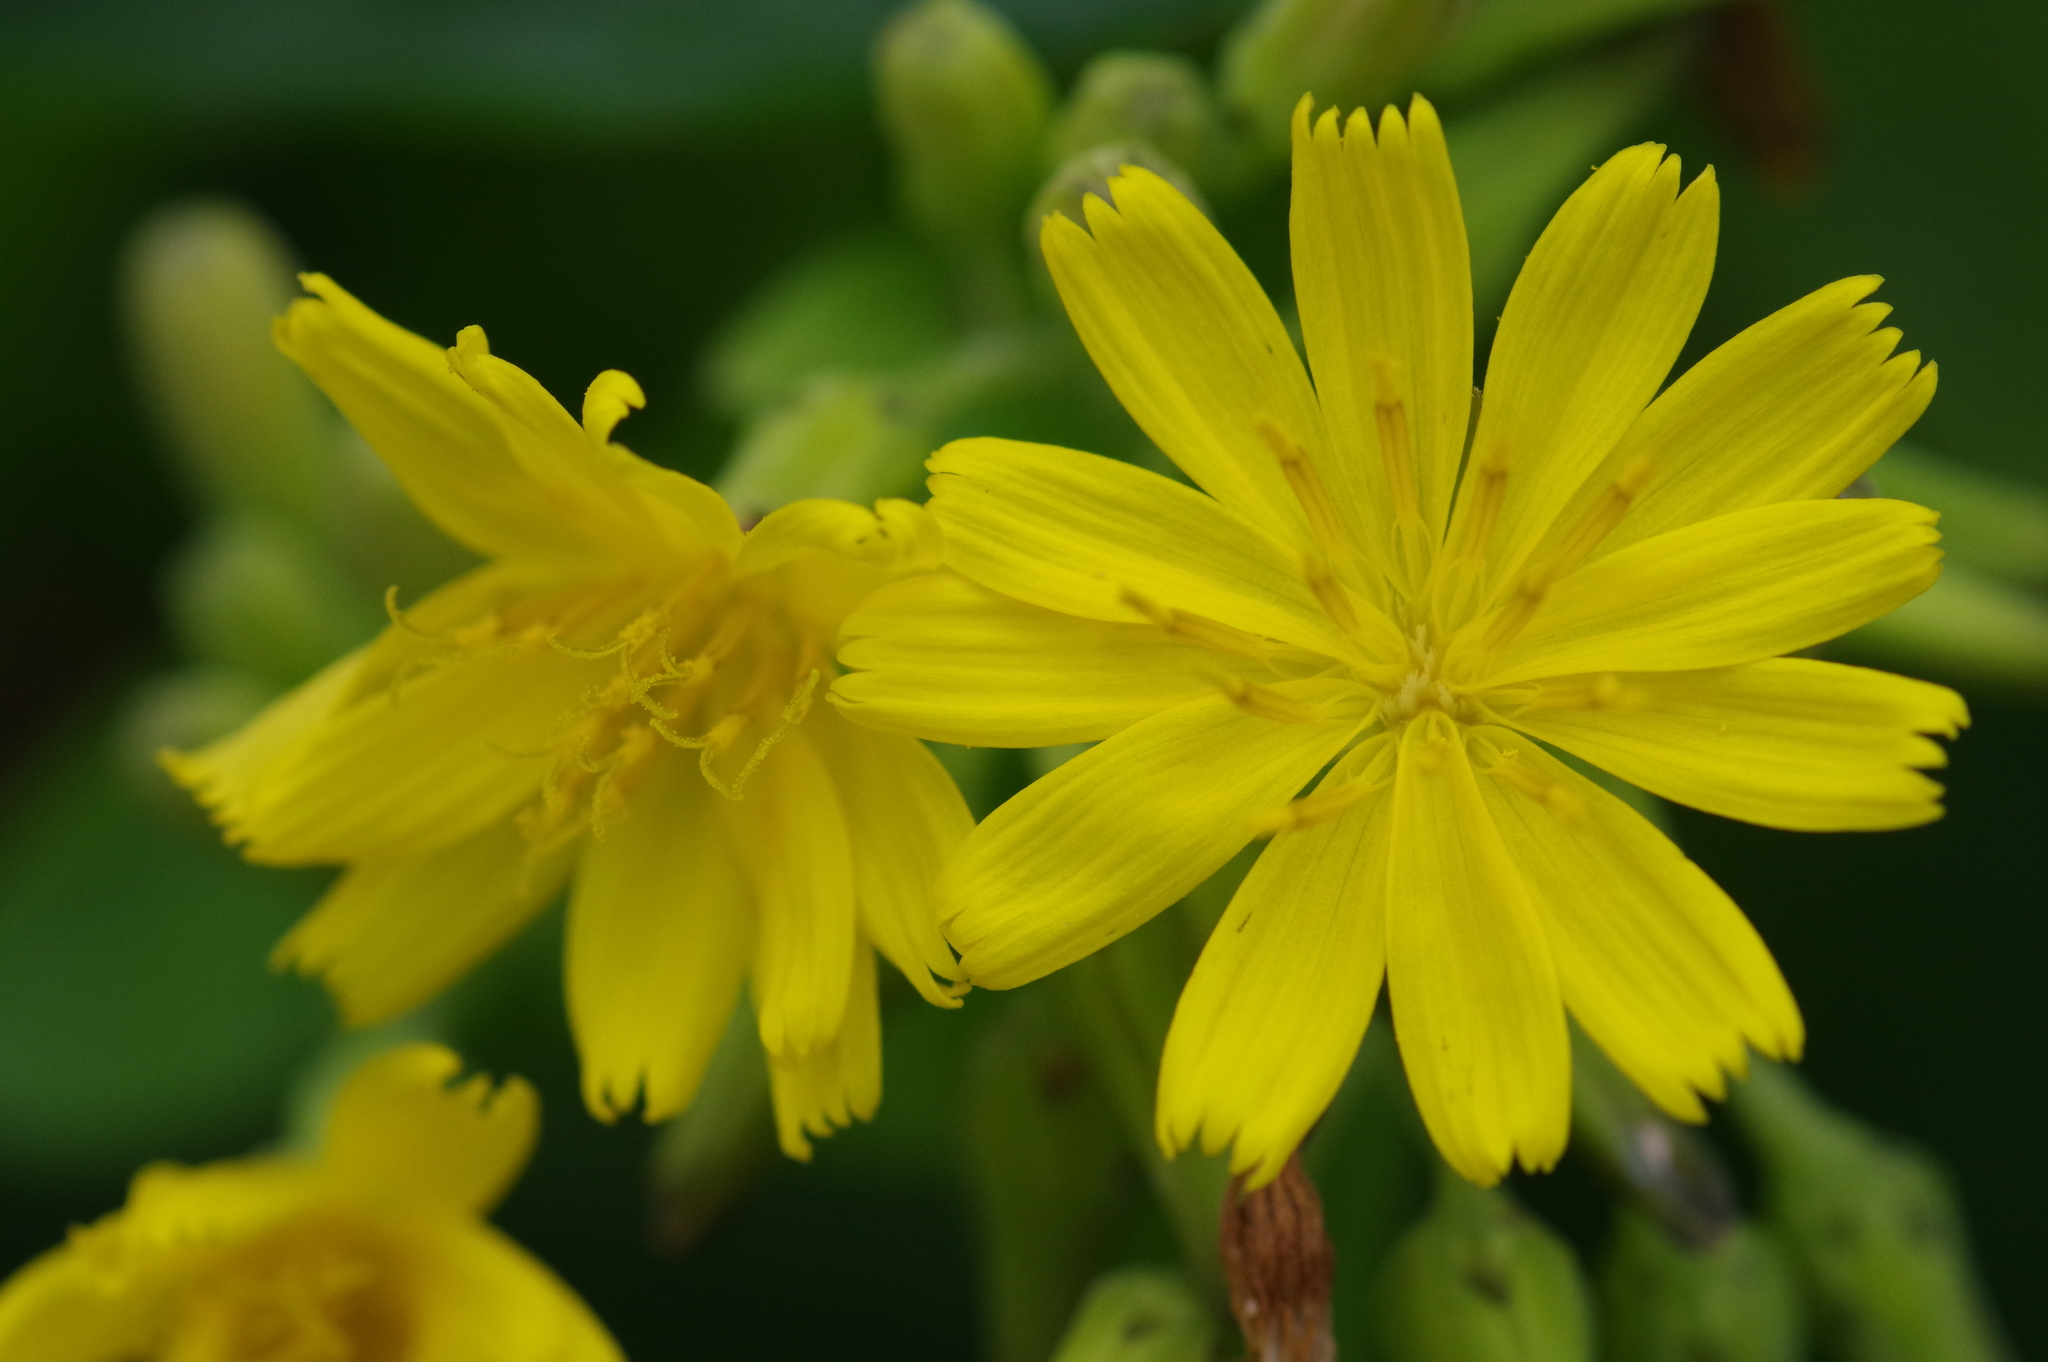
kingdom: Plantae
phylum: Tracheophyta
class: Magnoliopsida
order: Asterales
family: Asteraceae
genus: Crepidiastrum
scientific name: Crepidiastrum lanceolatum
